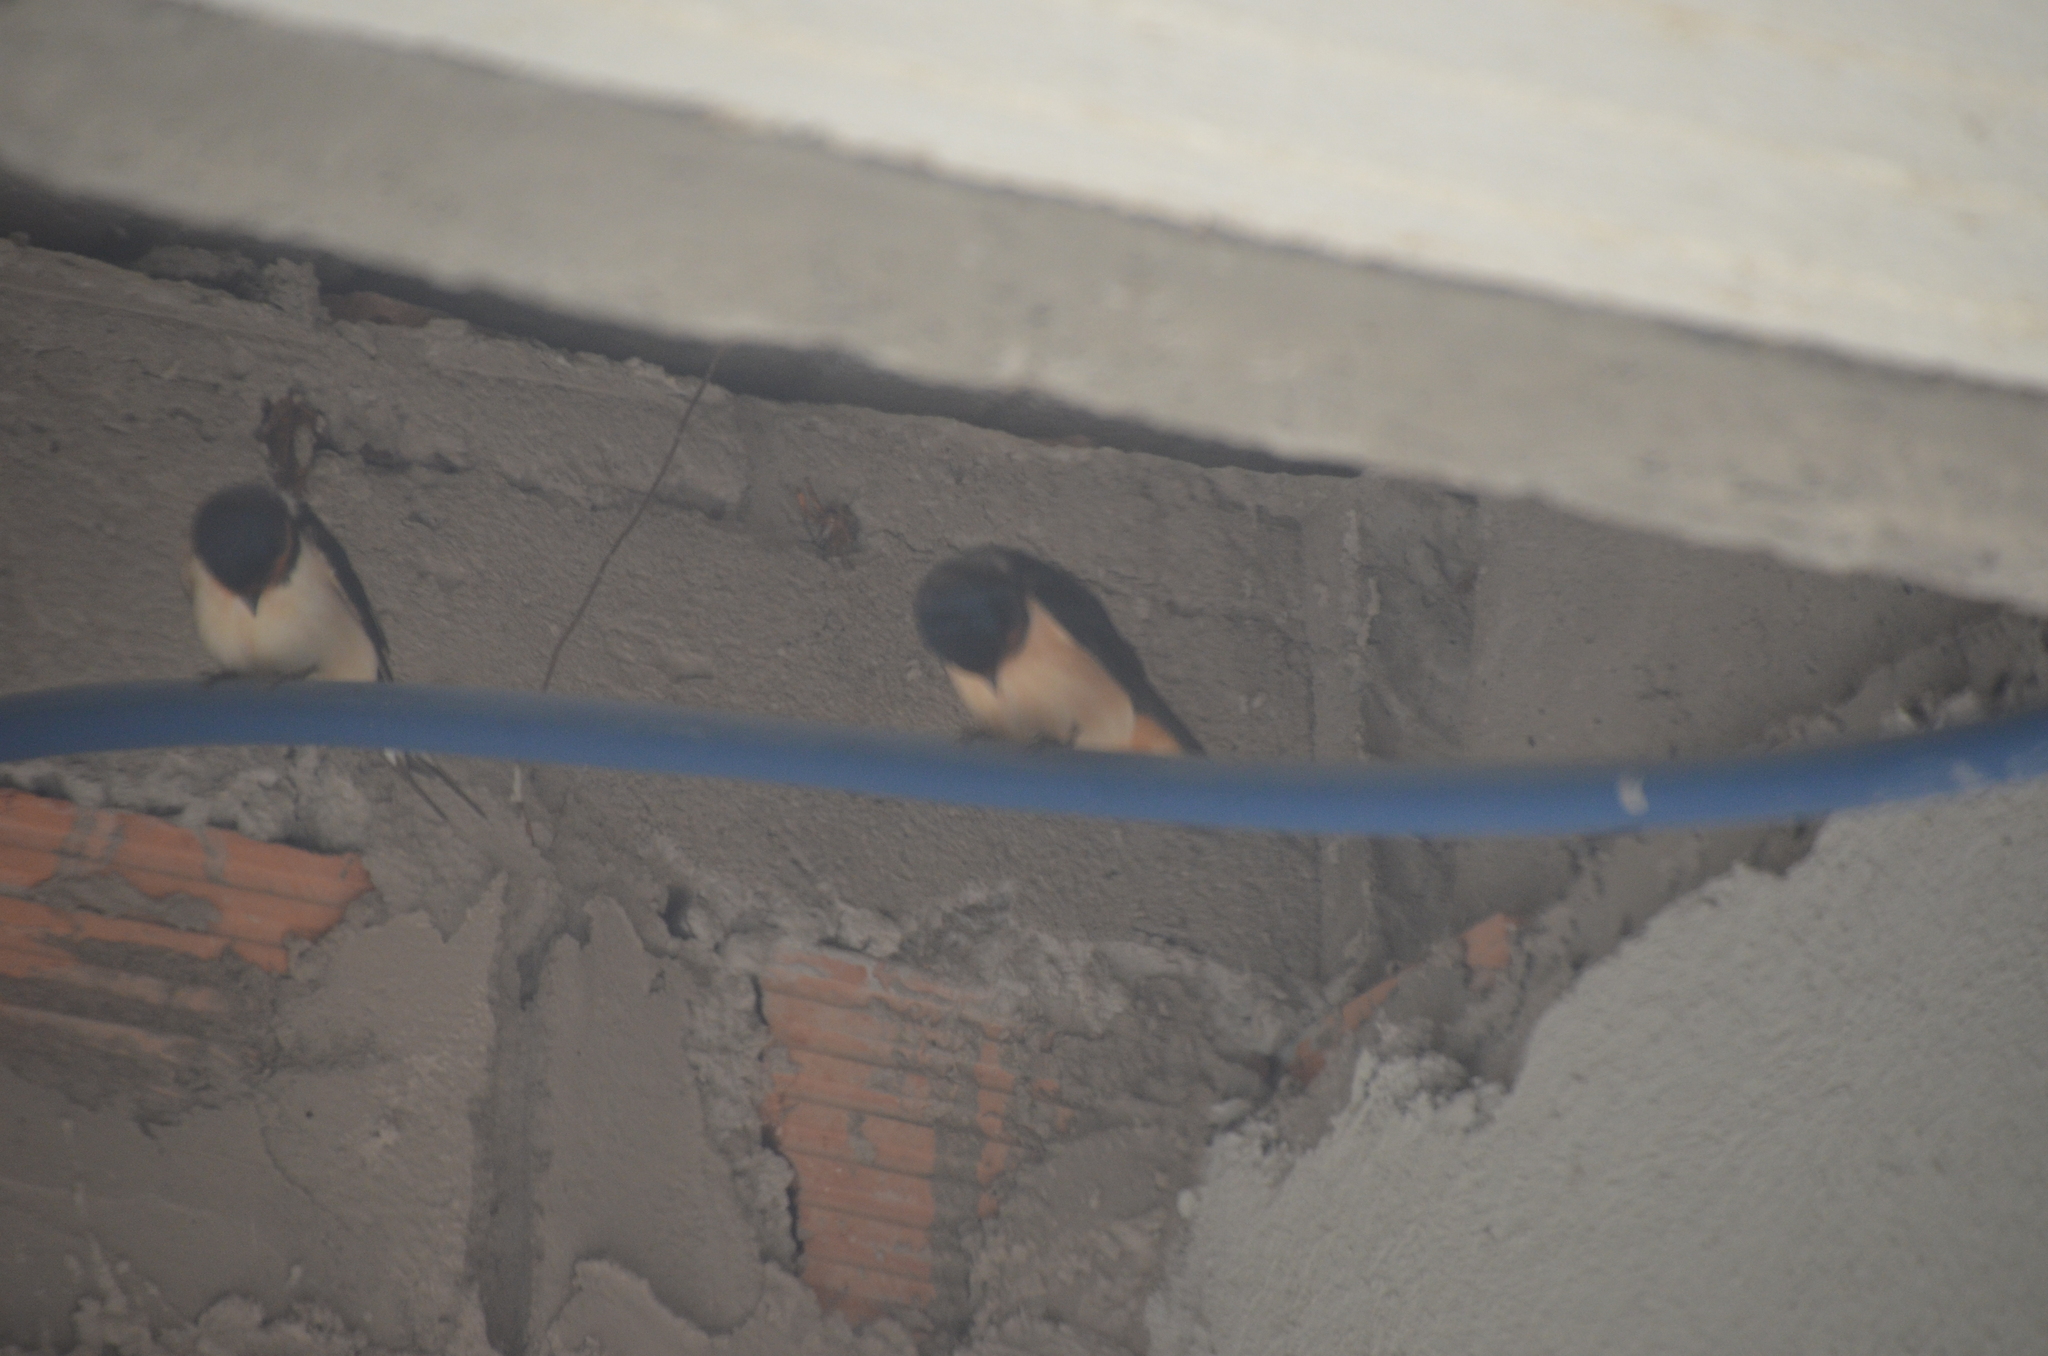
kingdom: Animalia
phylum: Chordata
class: Aves
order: Passeriformes
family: Hirundinidae
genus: Hirundo
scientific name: Hirundo rustica
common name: Barn swallow
